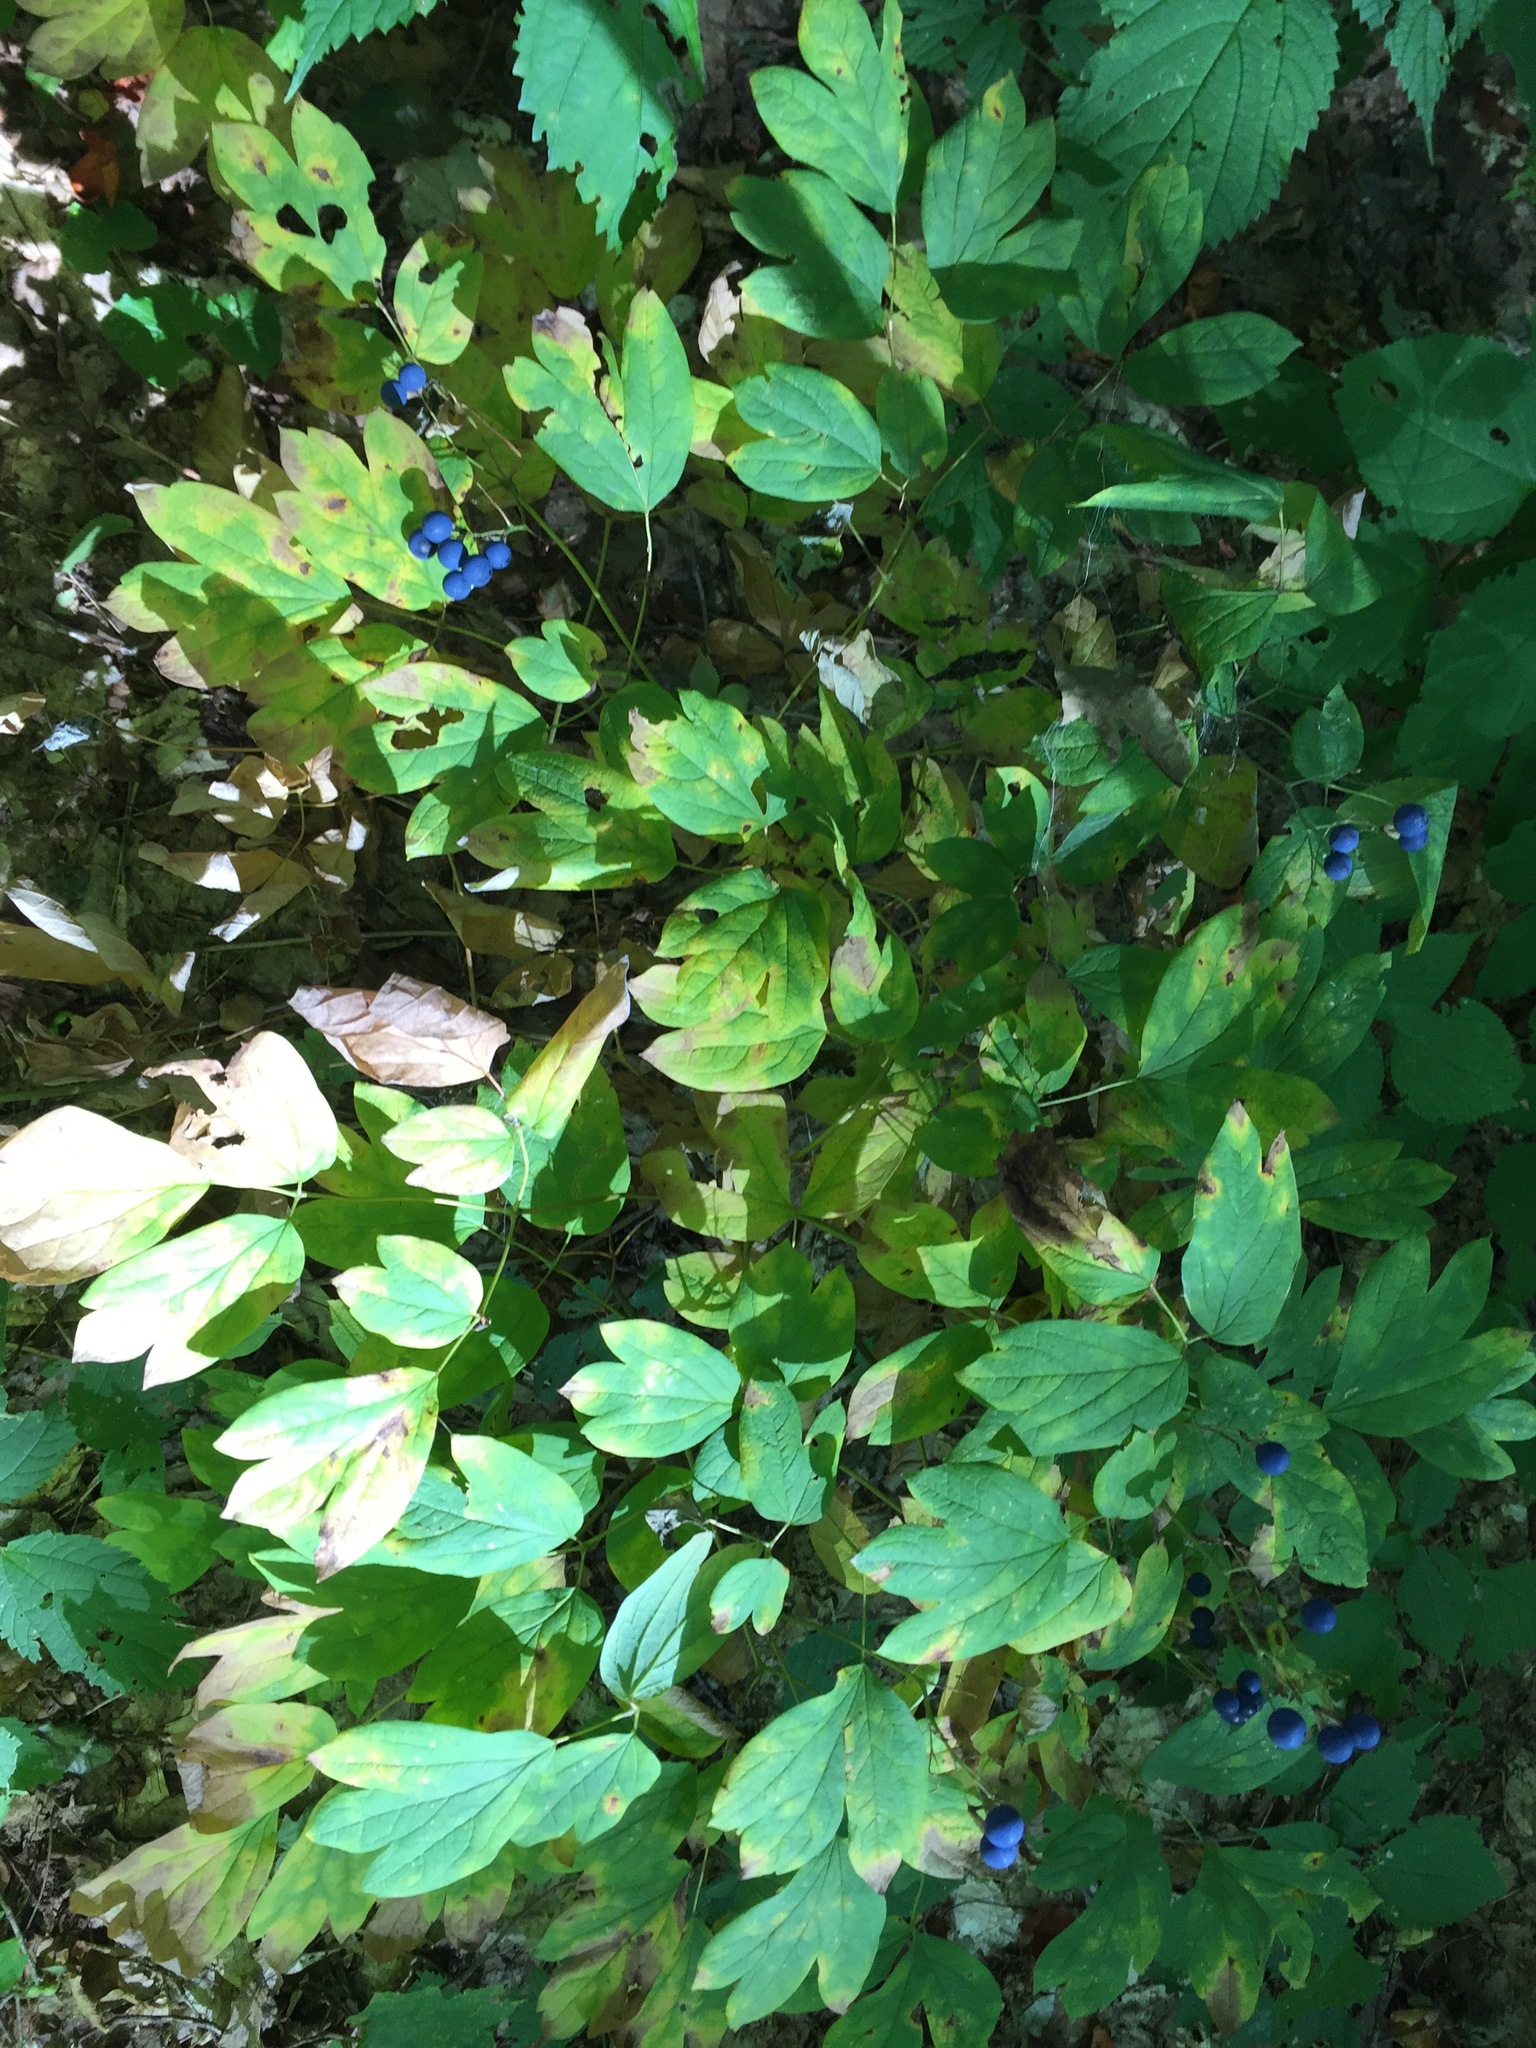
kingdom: Plantae
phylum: Tracheophyta
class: Magnoliopsida
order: Ranunculales
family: Berberidaceae
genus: Caulophyllum
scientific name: Caulophyllum thalictroides
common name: Blue cohosh
